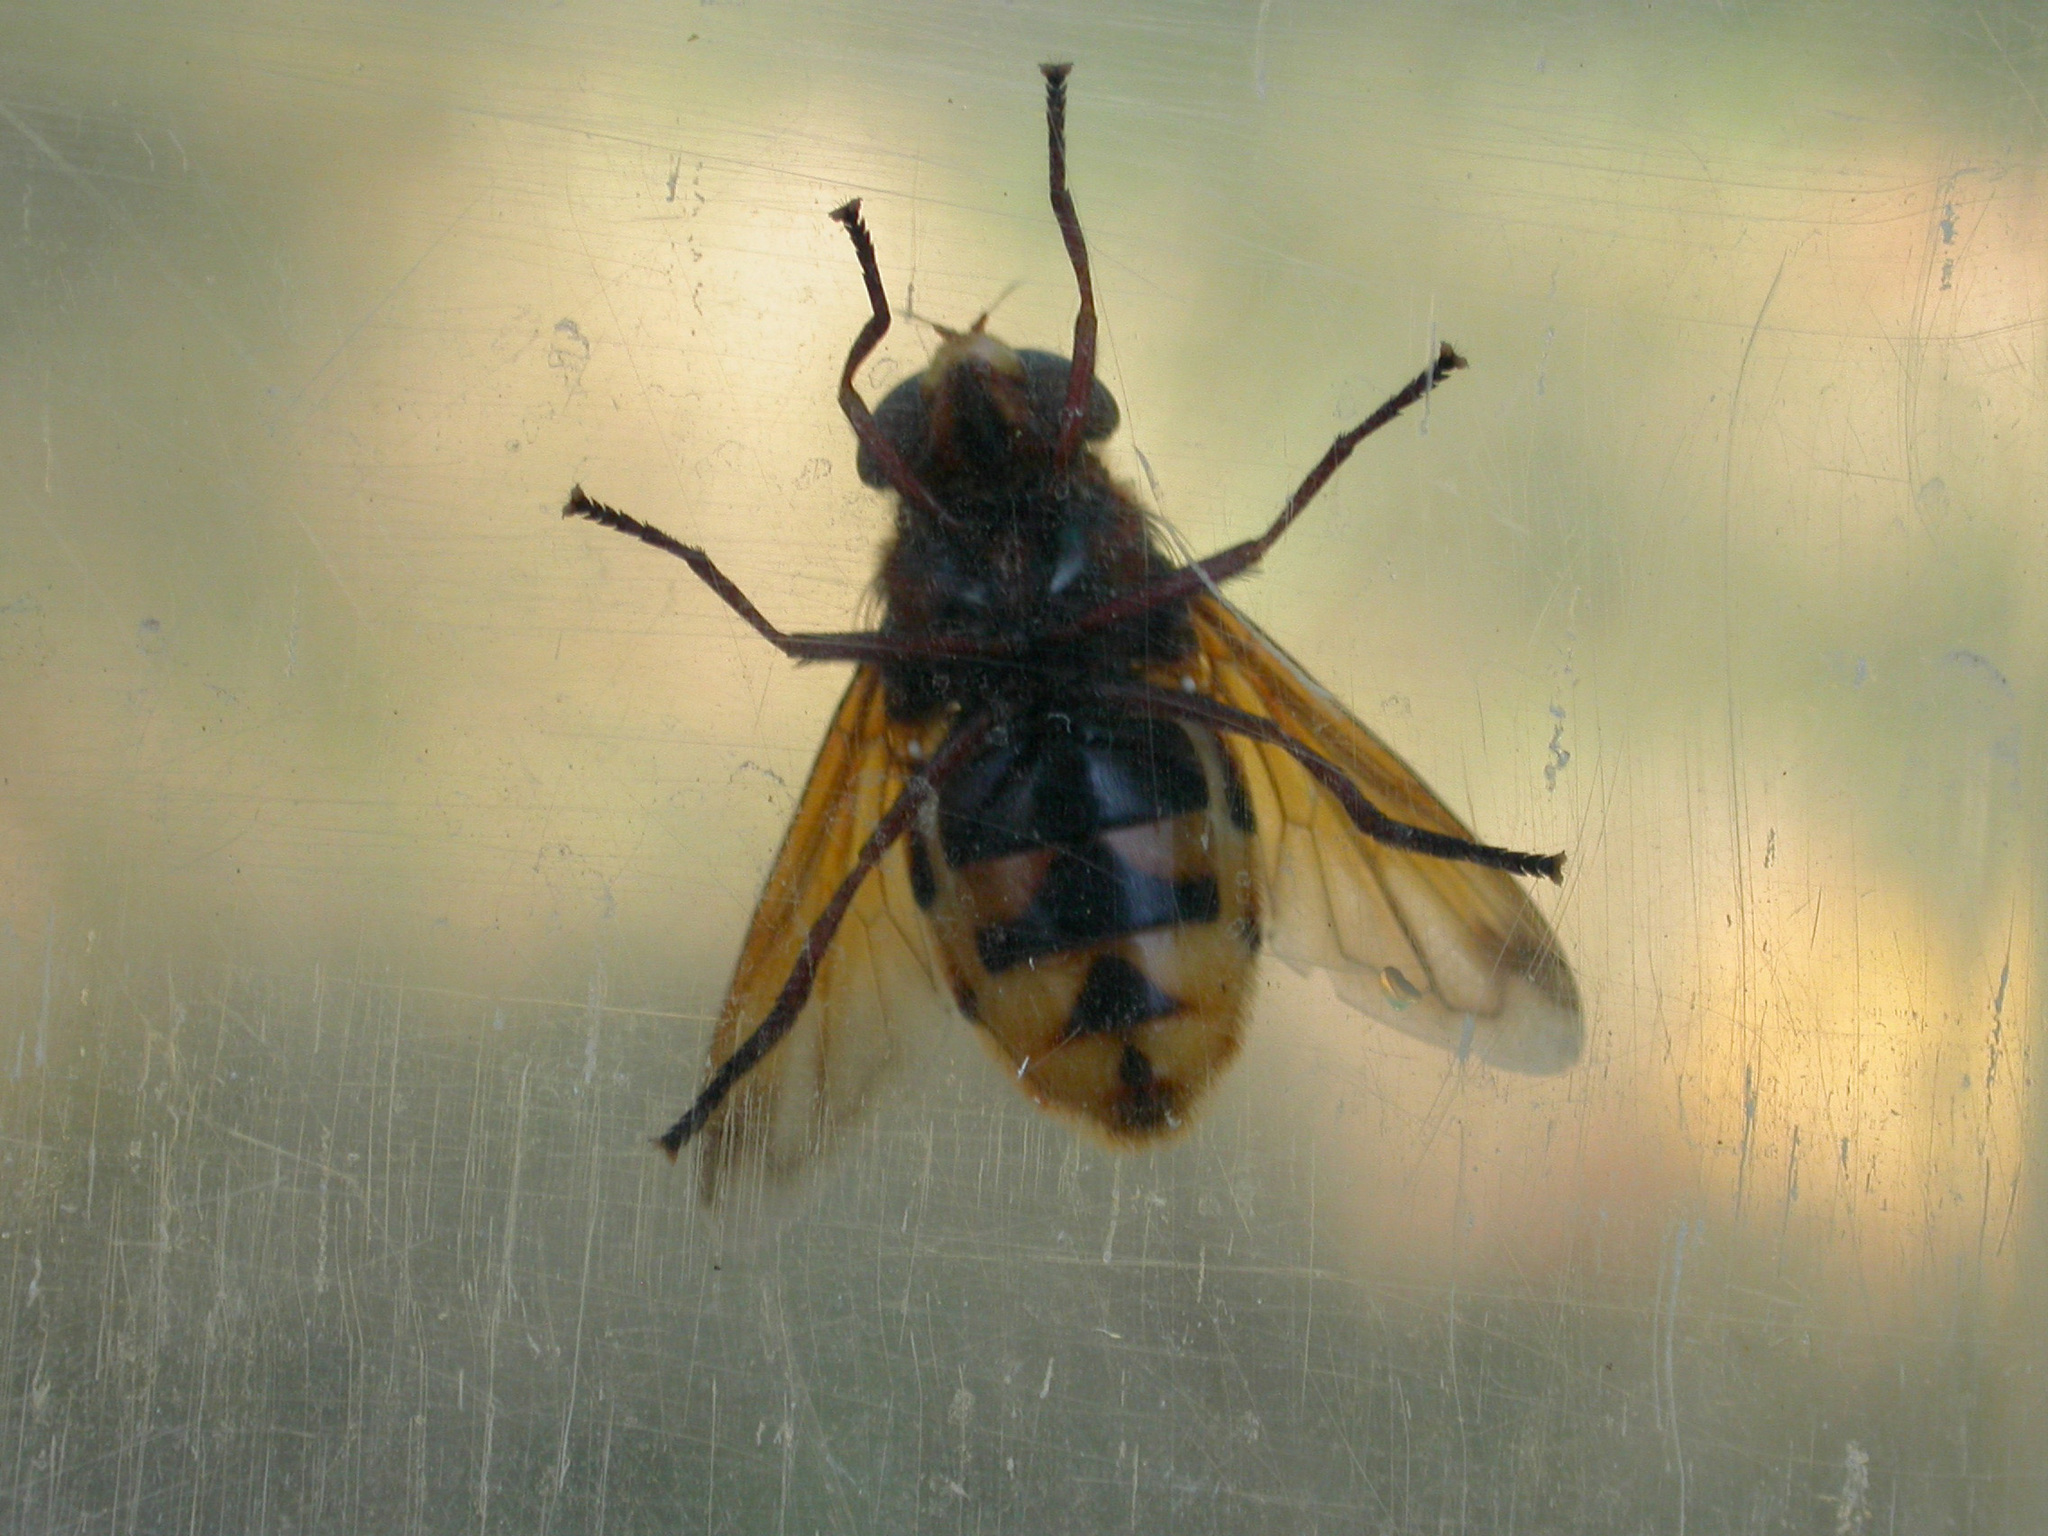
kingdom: Animalia
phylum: Arthropoda
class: Insecta
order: Diptera
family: Syrphidae
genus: Volucella
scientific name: Volucella zonaria
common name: Hornet hoverfly
